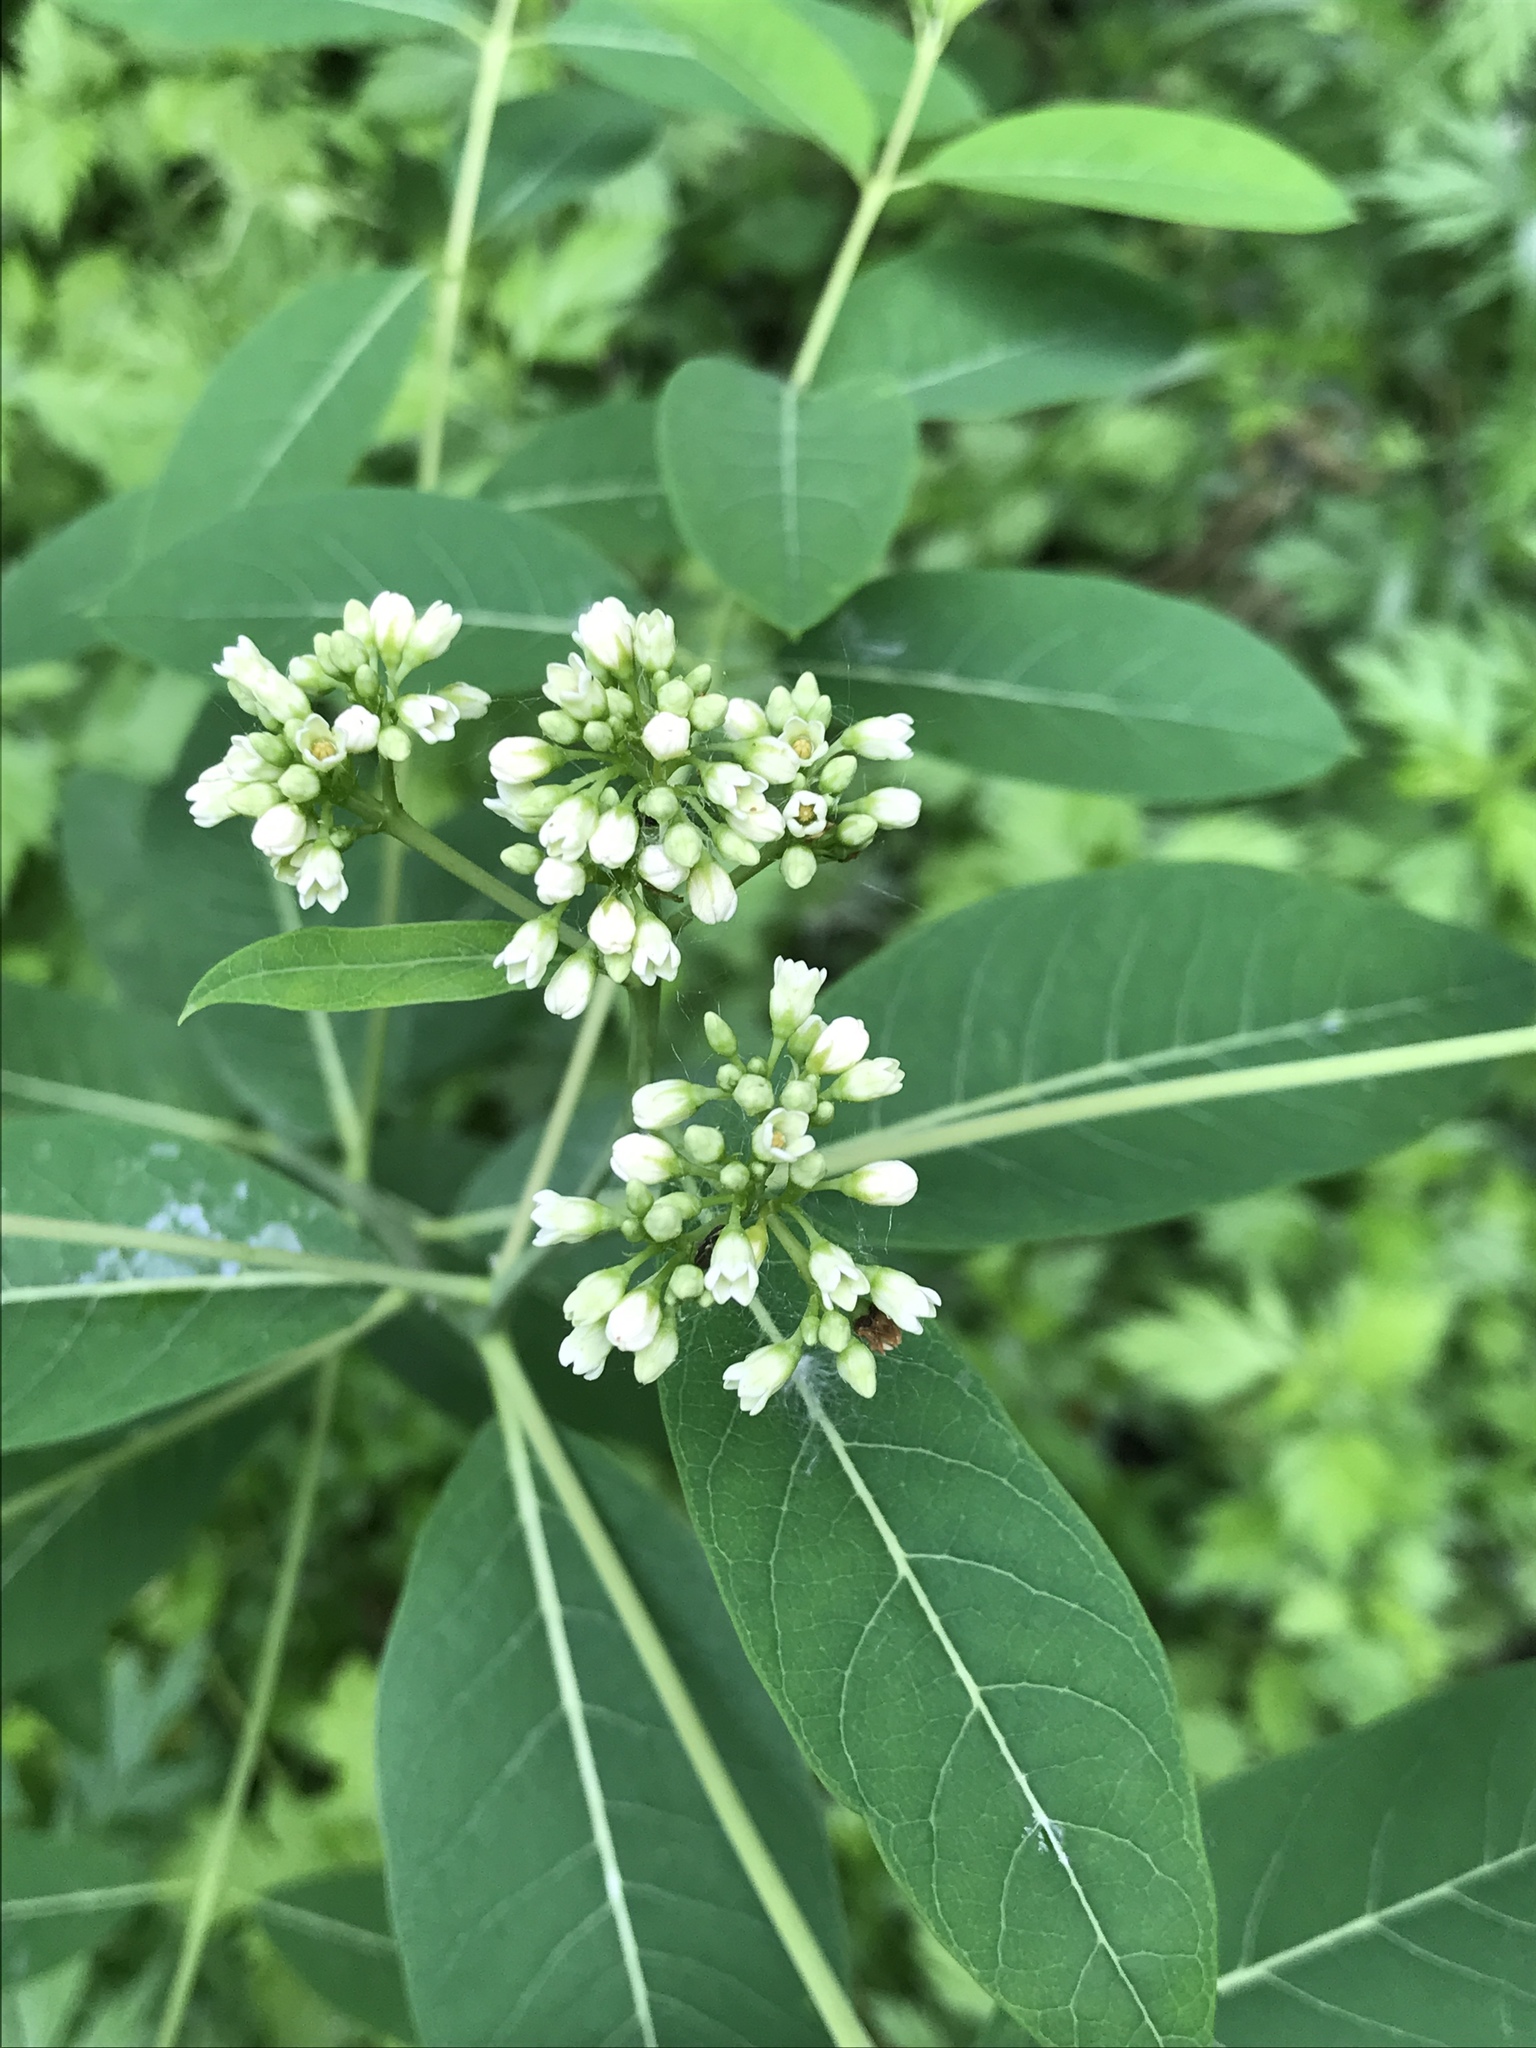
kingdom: Plantae
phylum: Tracheophyta
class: Magnoliopsida
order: Gentianales
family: Apocynaceae
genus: Apocynum
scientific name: Apocynum cannabinum
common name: Hemp dogbane
